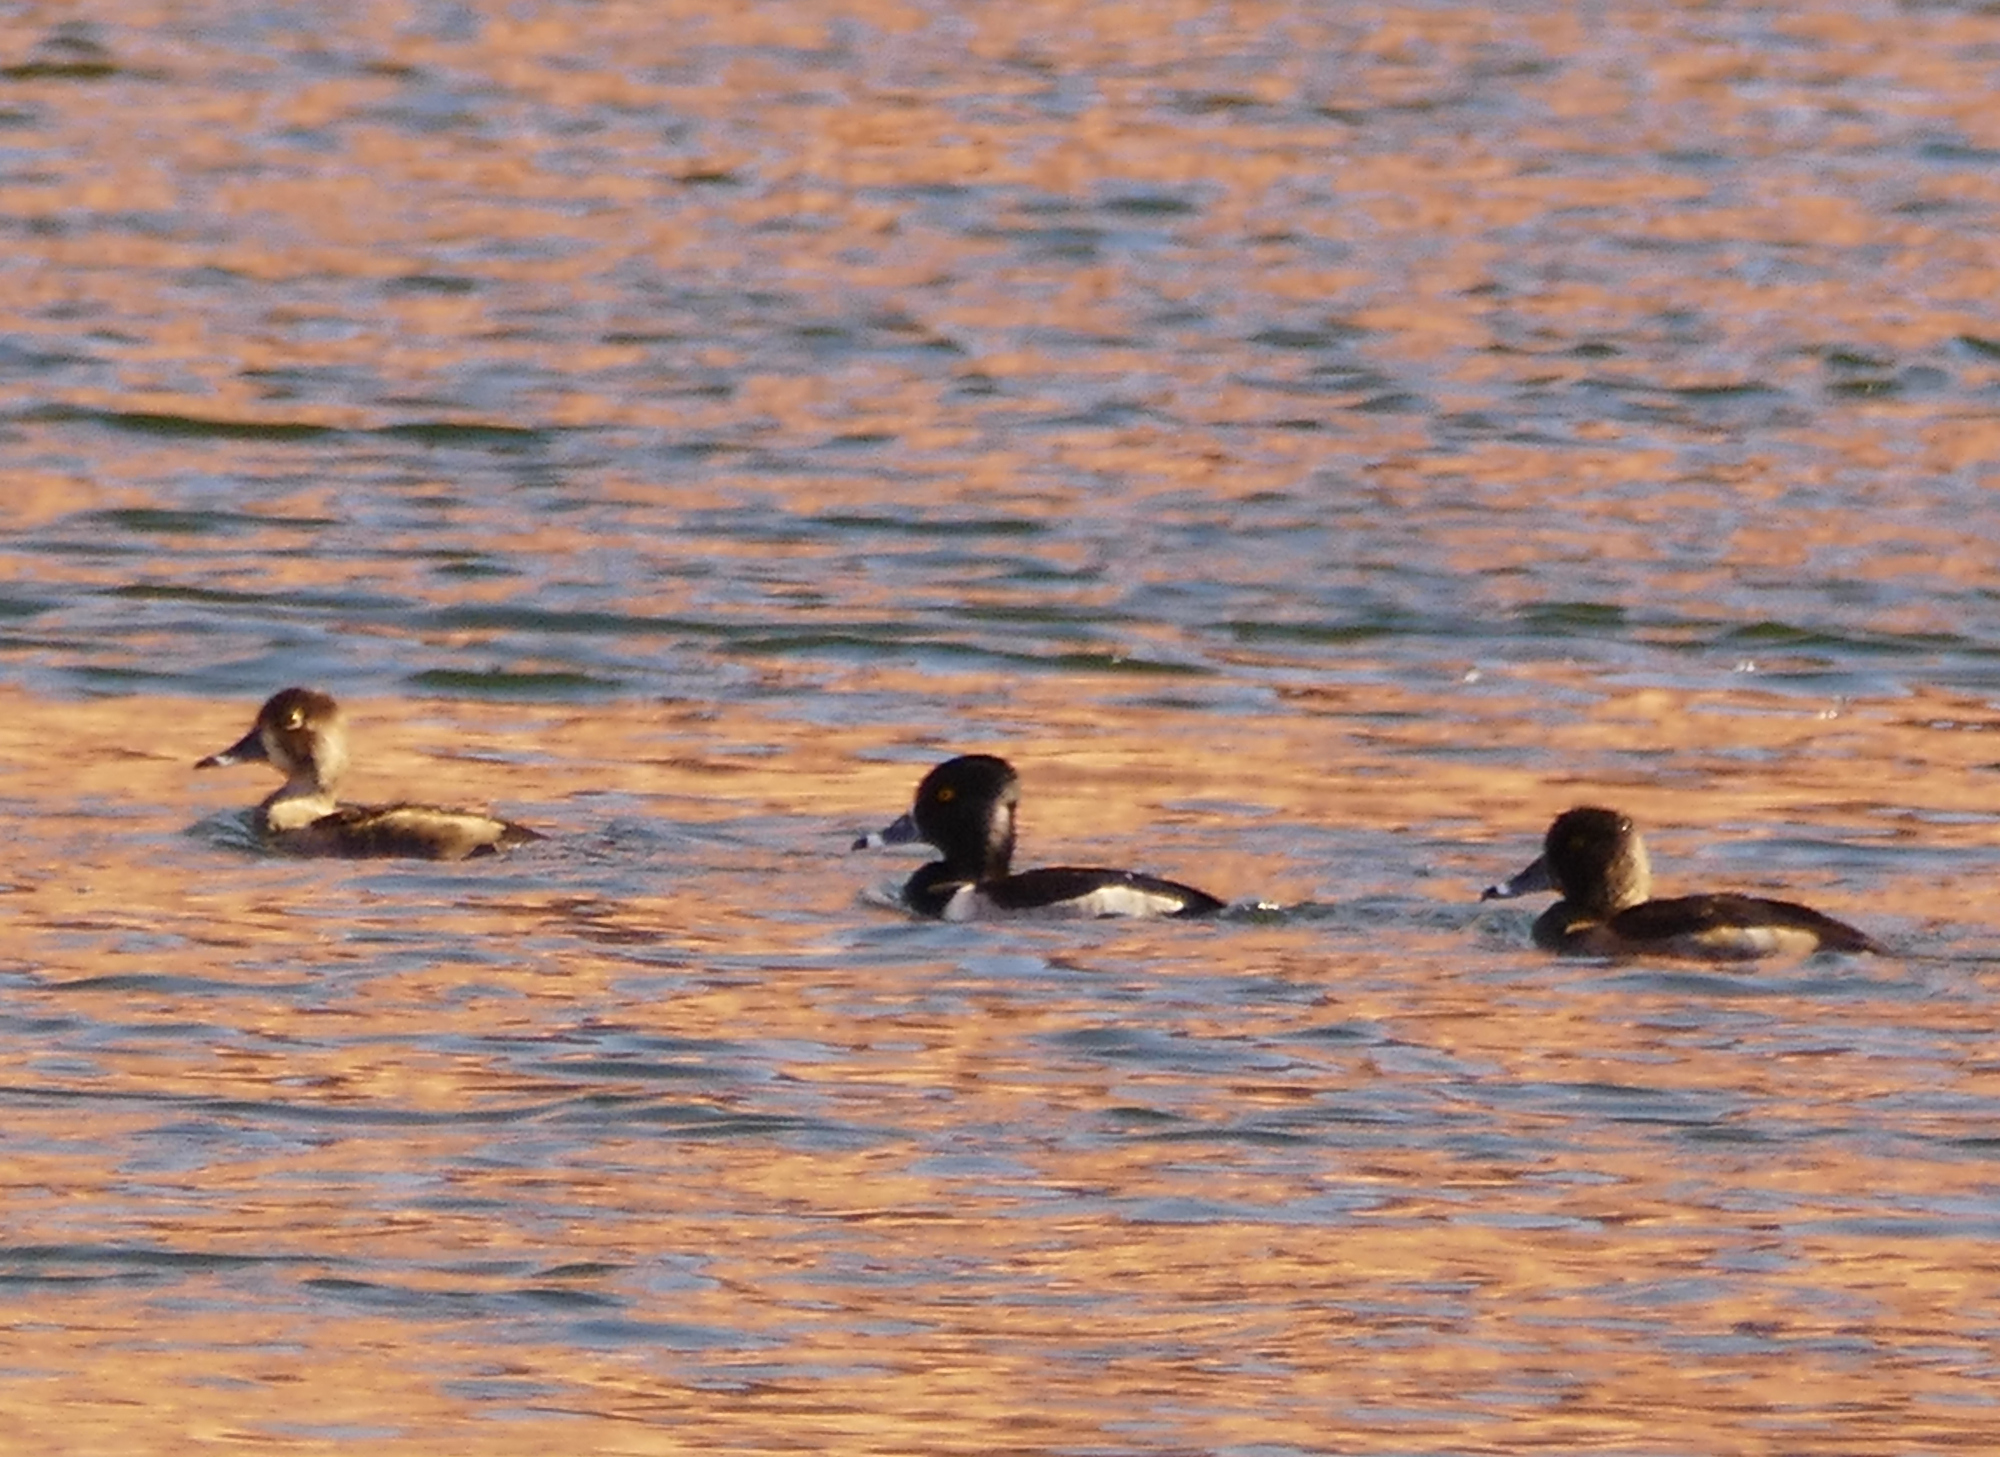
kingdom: Animalia
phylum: Chordata
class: Aves
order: Anseriformes
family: Anatidae
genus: Aythya
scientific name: Aythya collaris
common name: Ring-necked duck
